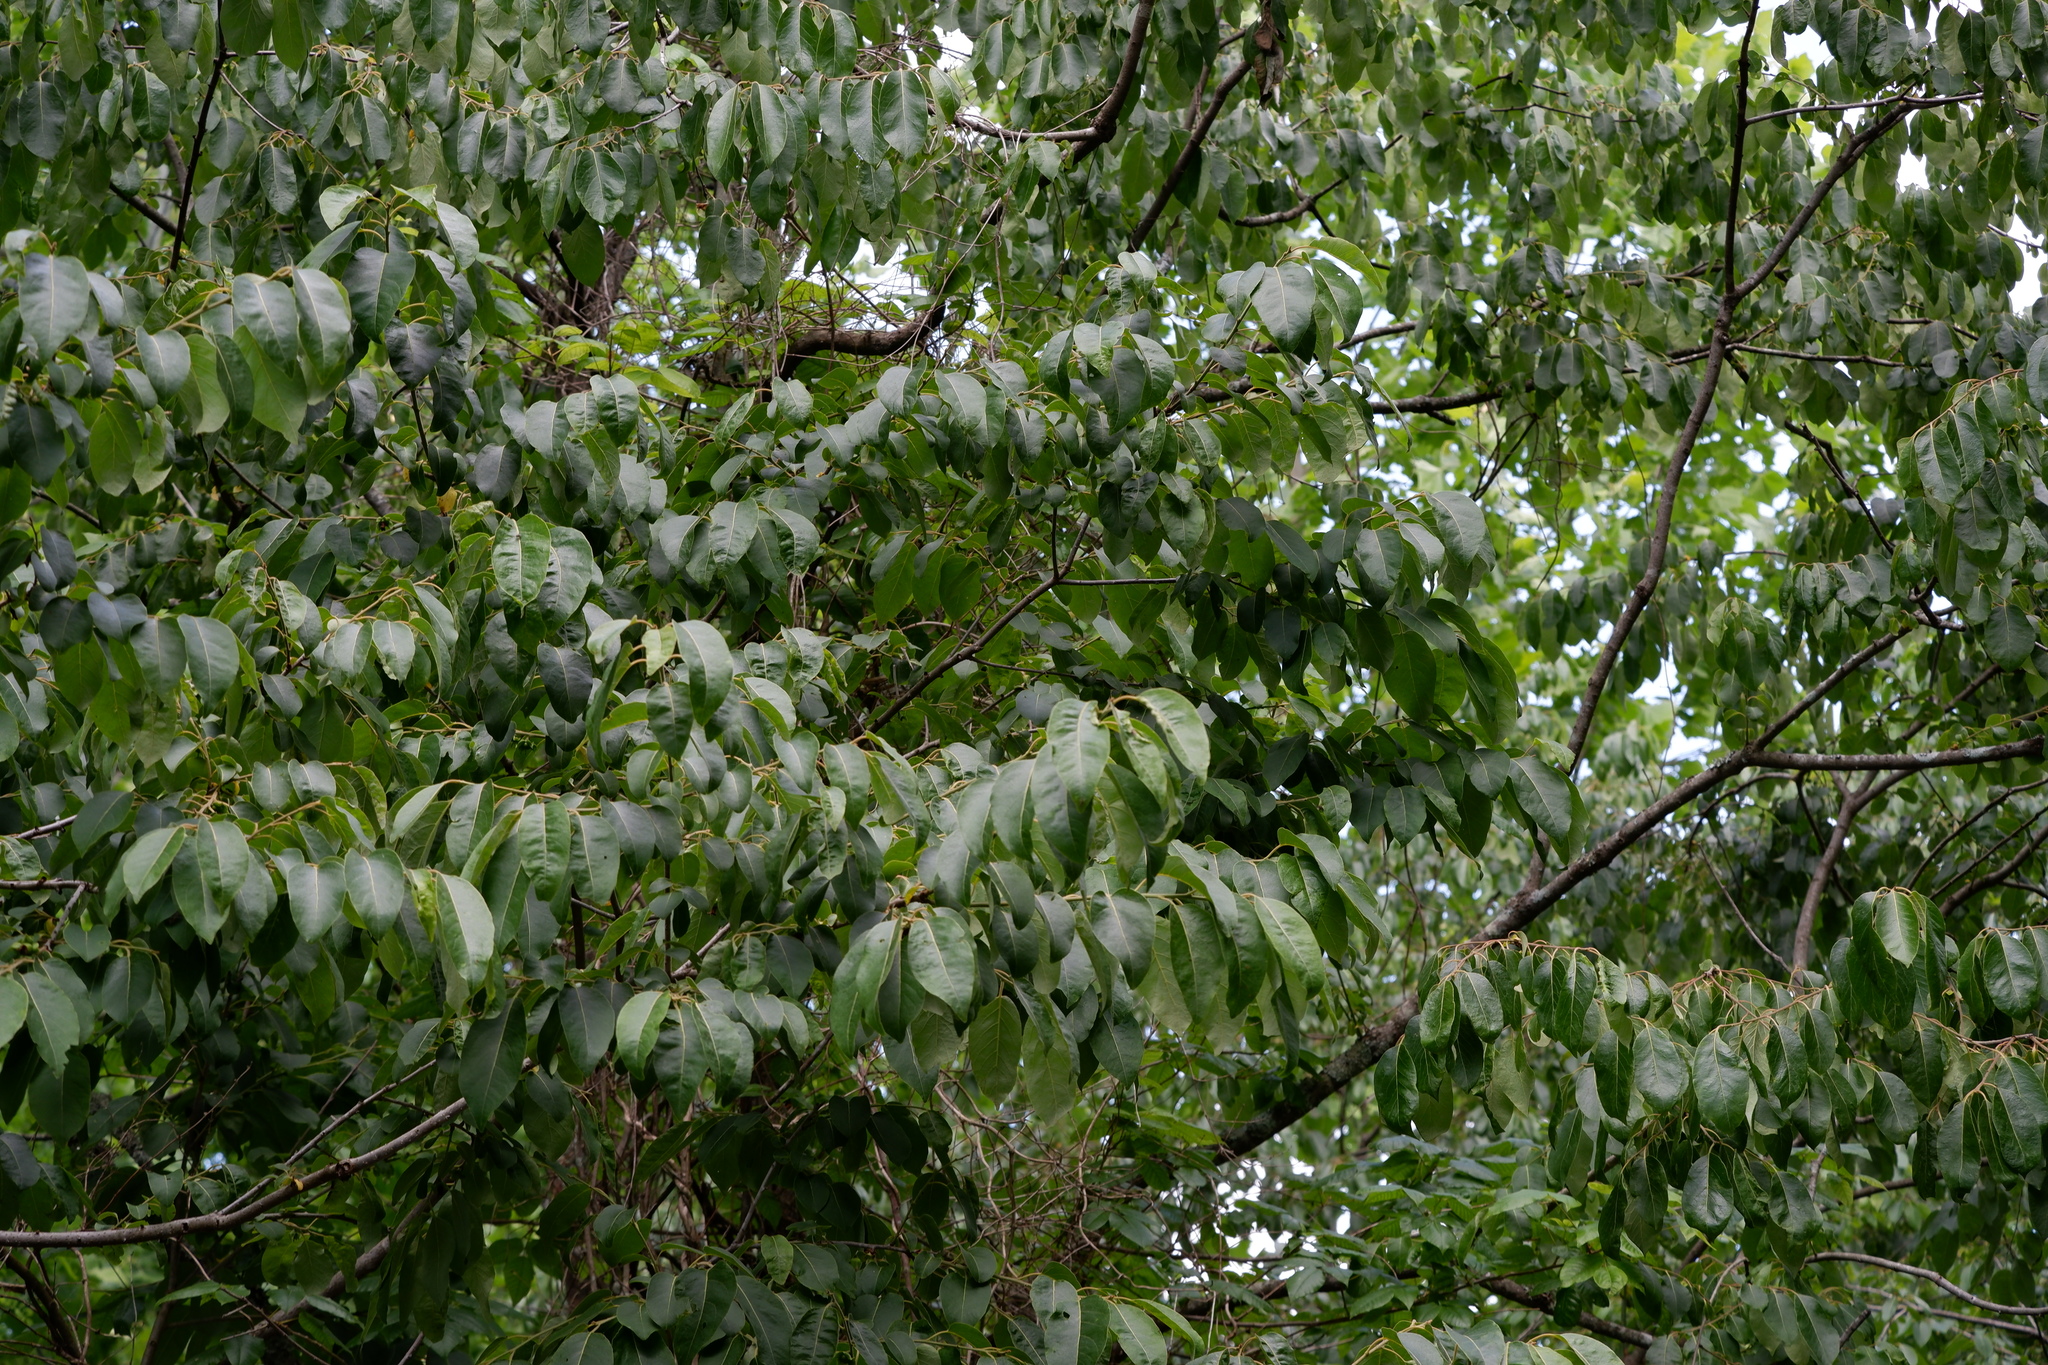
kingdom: Plantae
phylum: Tracheophyta
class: Magnoliopsida
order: Ericales
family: Ebenaceae
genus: Diospyros
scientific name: Diospyros virginiana
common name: Persimmon
